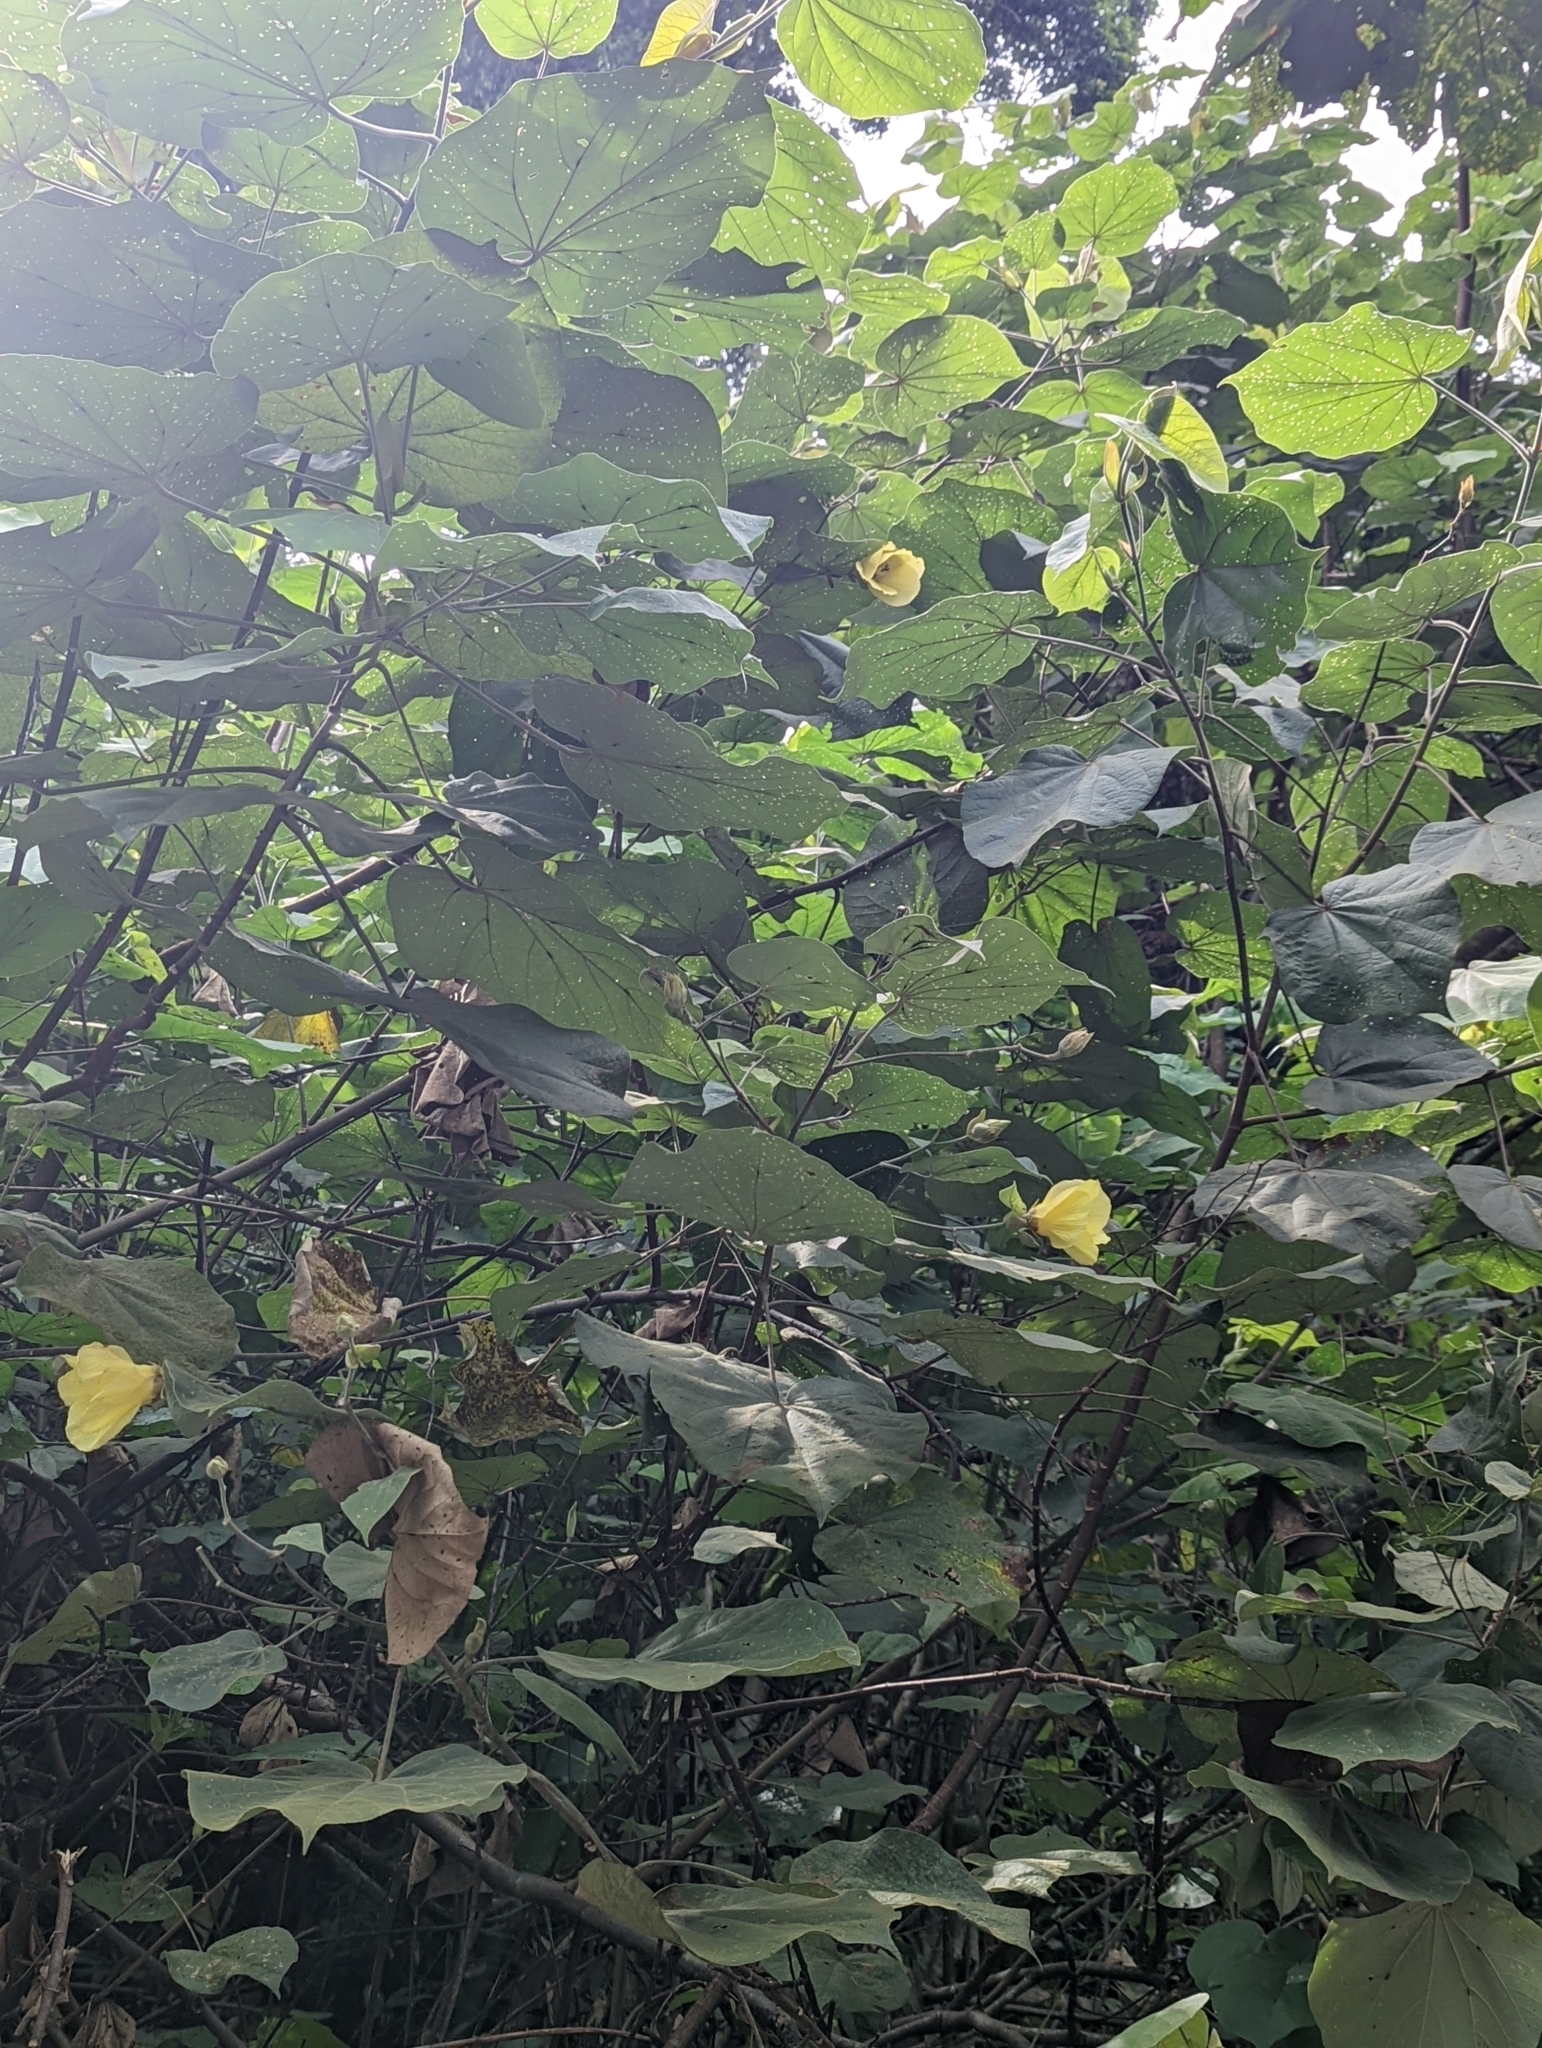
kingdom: Plantae
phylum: Tracheophyta
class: Magnoliopsida
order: Malvales
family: Malvaceae
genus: Talipariti
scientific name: Talipariti tiliaceum
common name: Sea hibiscus
